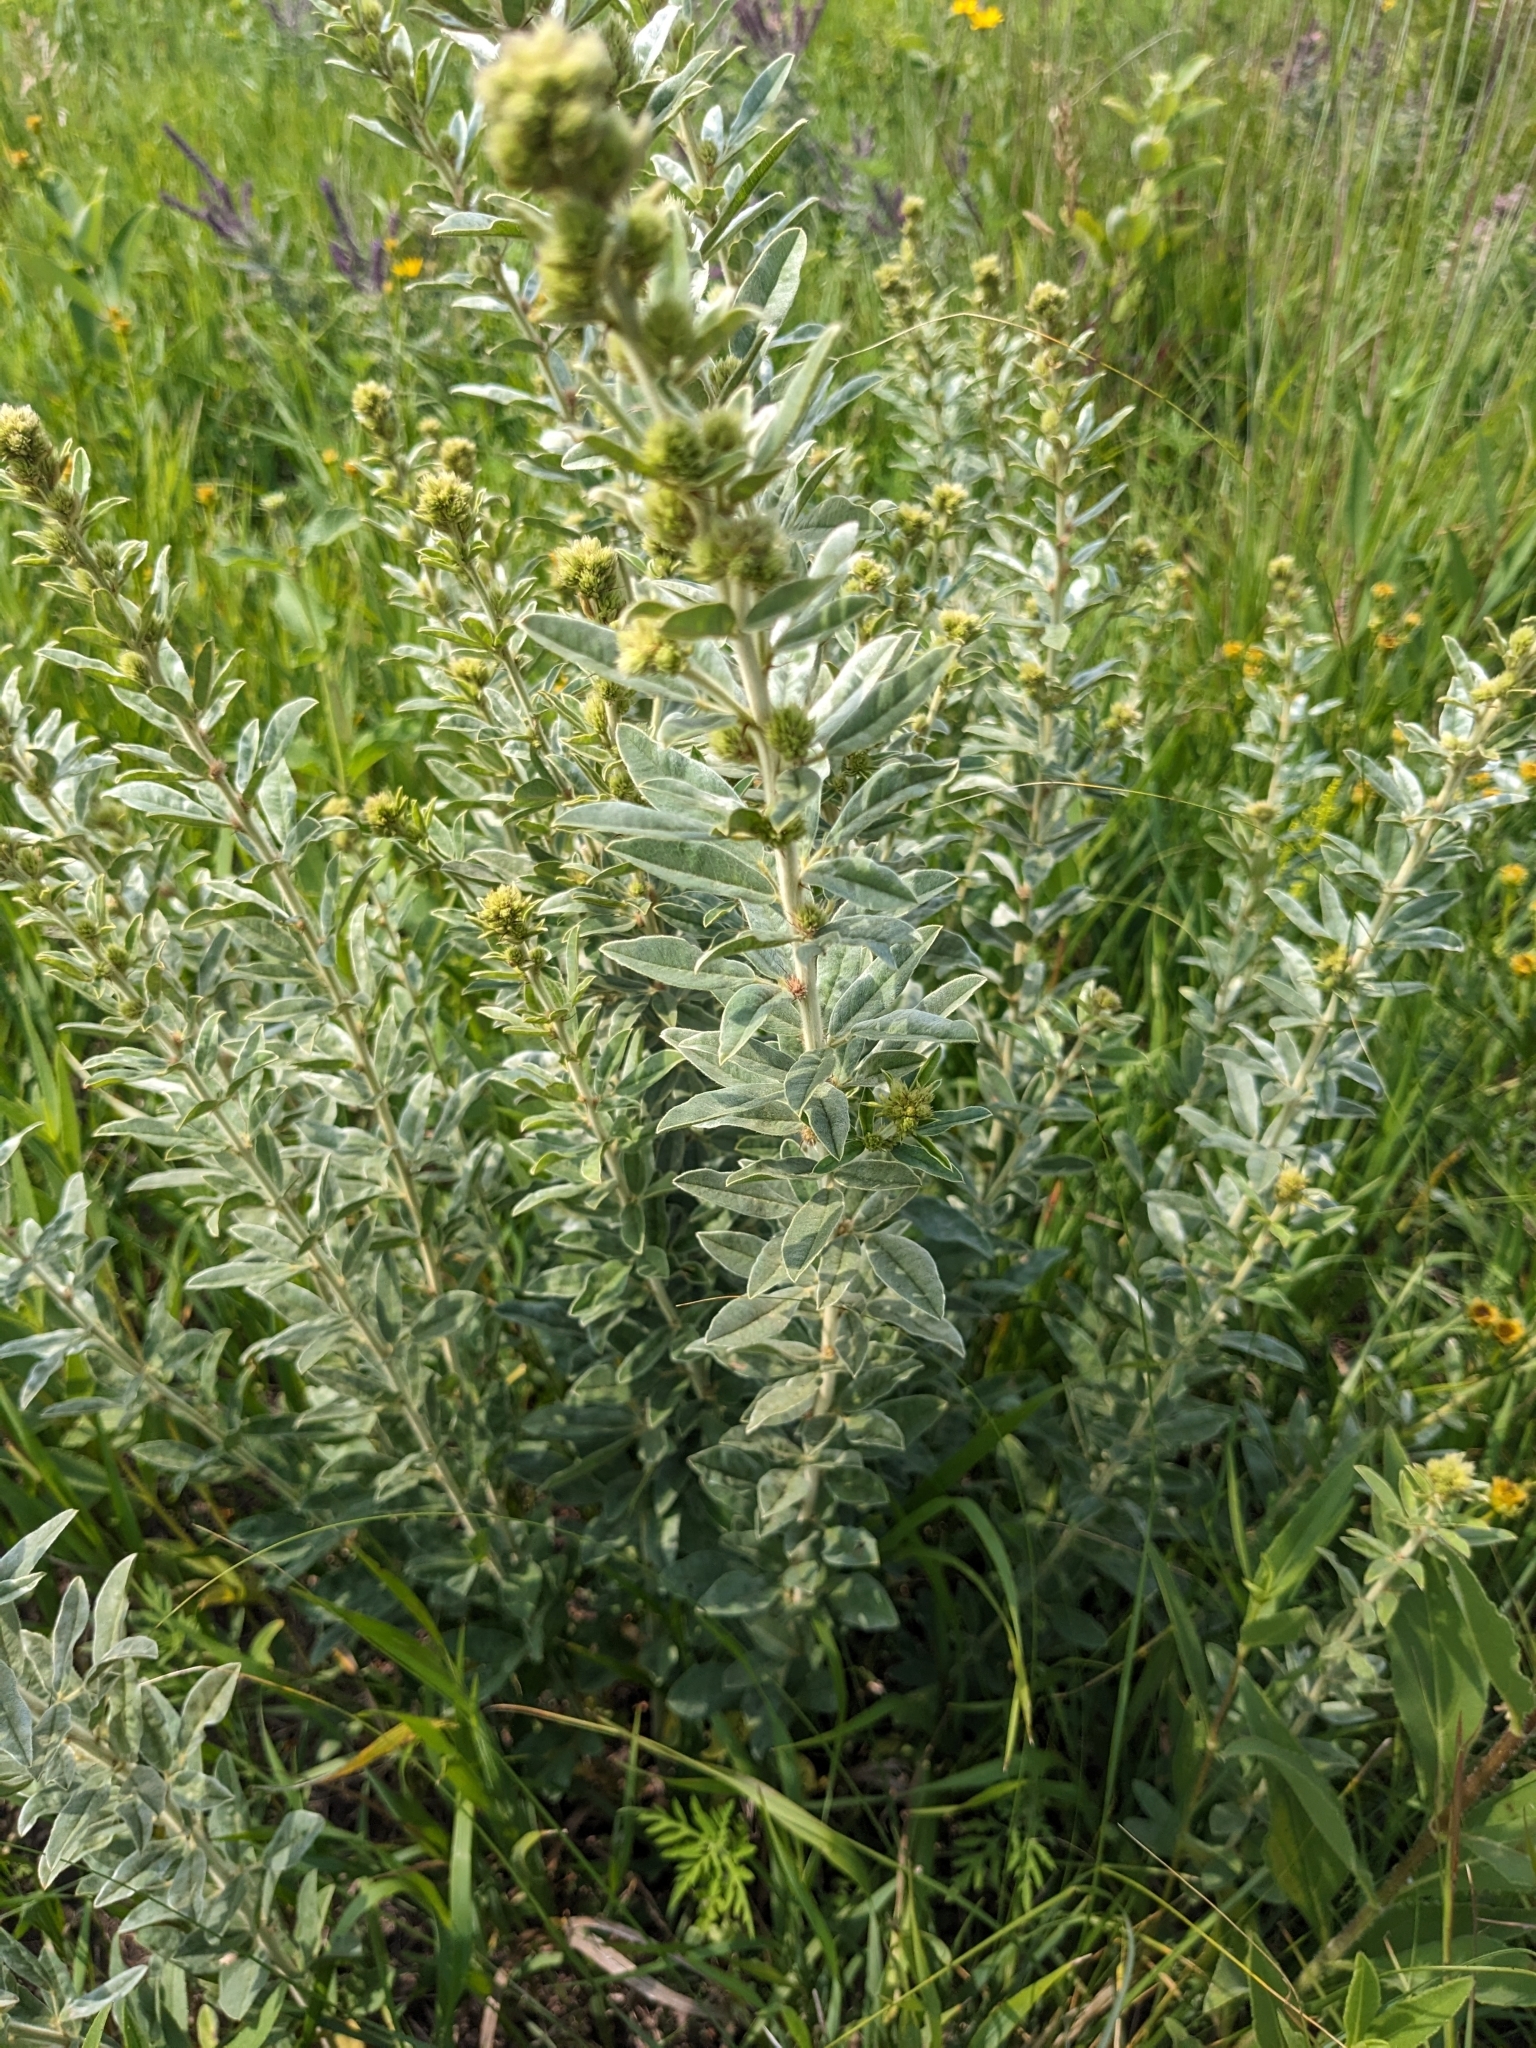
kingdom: Plantae
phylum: Tracheophyta
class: Magnoliopsida
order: Fabales
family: Fabaceae
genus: Lespedeza
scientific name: Lespedeza capitata
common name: Dusty clover
